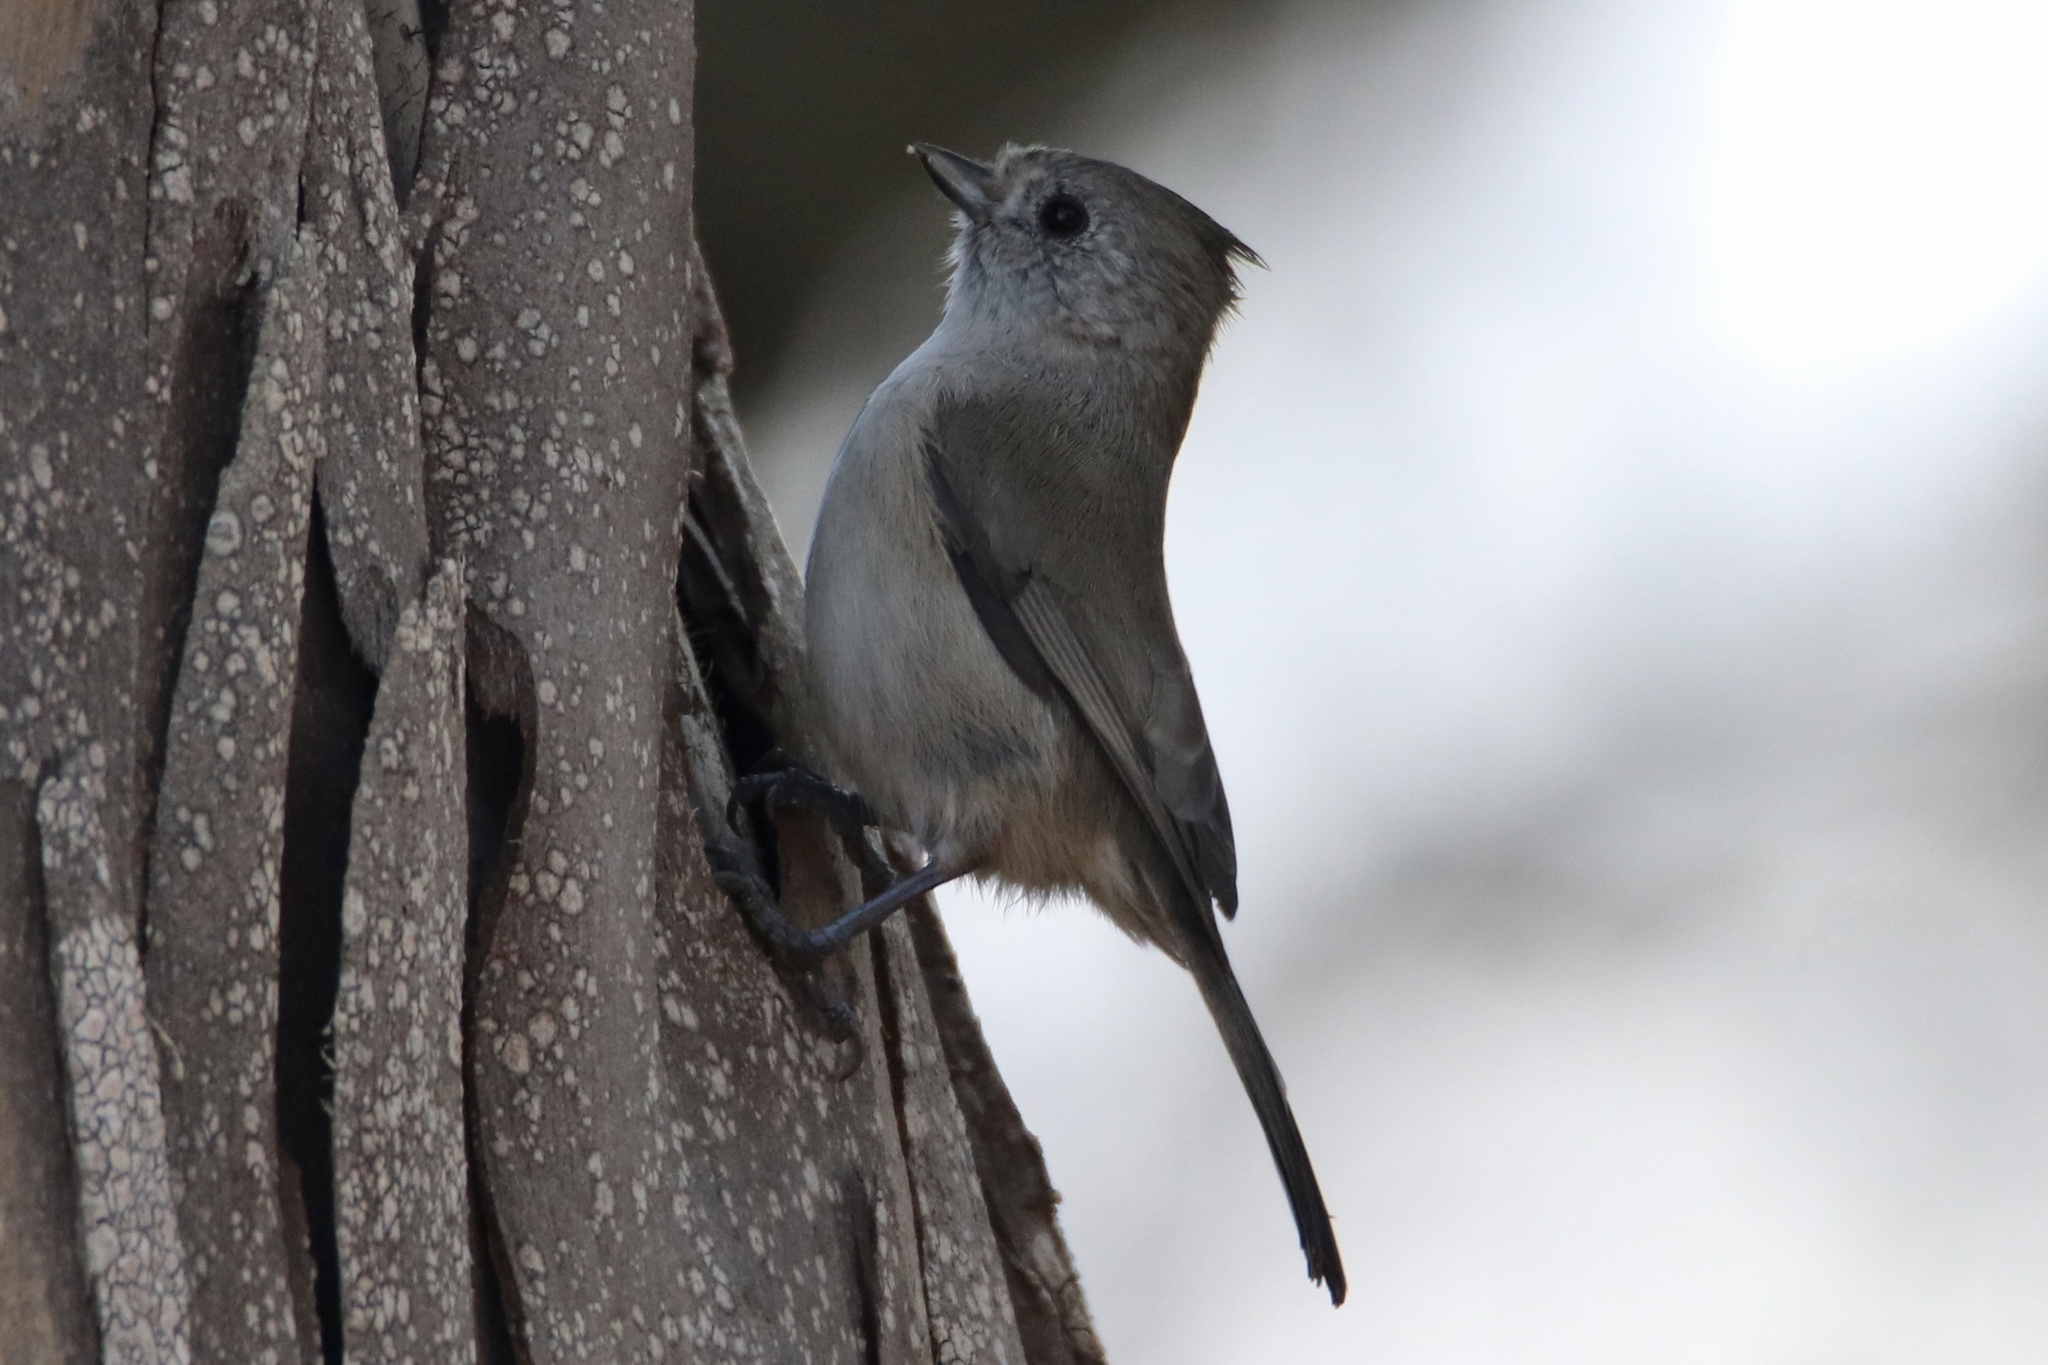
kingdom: Animalia
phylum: Chordata
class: Aves
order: Passeriformes
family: Paridae
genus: Baeolophus
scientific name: Baeolophus inornatus
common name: Oak titmouse
